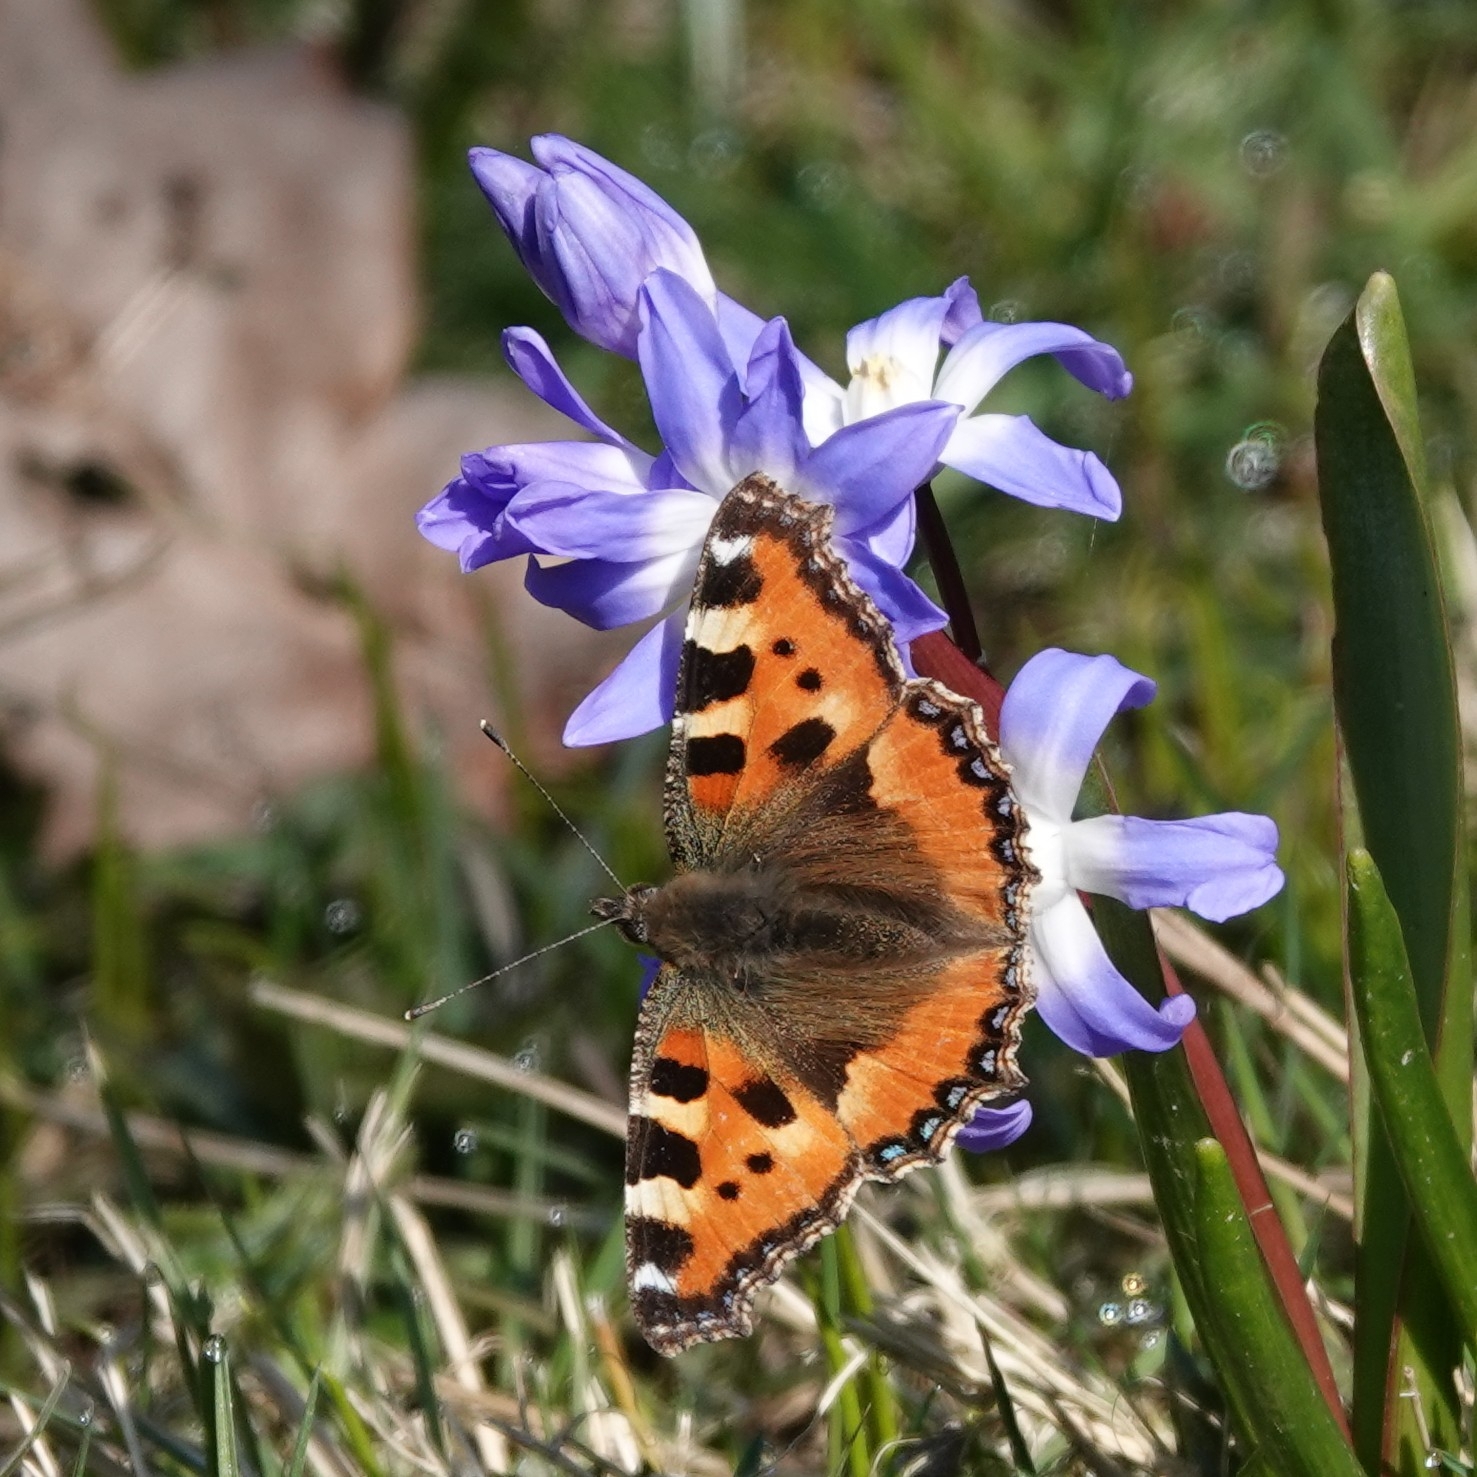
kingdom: Animalia
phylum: Arthropoda
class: Insecta
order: Lepidoptera
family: Nymphalidae
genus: Aglais
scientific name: Aglais urticae
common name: Small tortoiseshell
